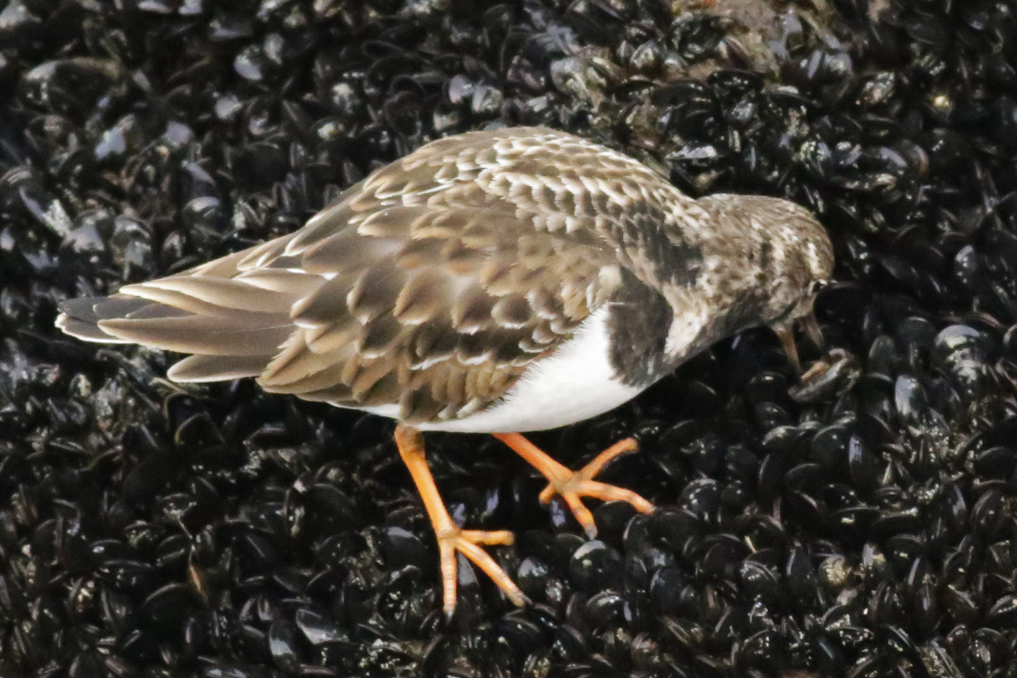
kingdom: Animalia
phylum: Chordata
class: Aves
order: Charadriiformes
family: Scolopacidae
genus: Arenaria
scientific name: Arenaria interpres
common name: Ruddy turnstone
